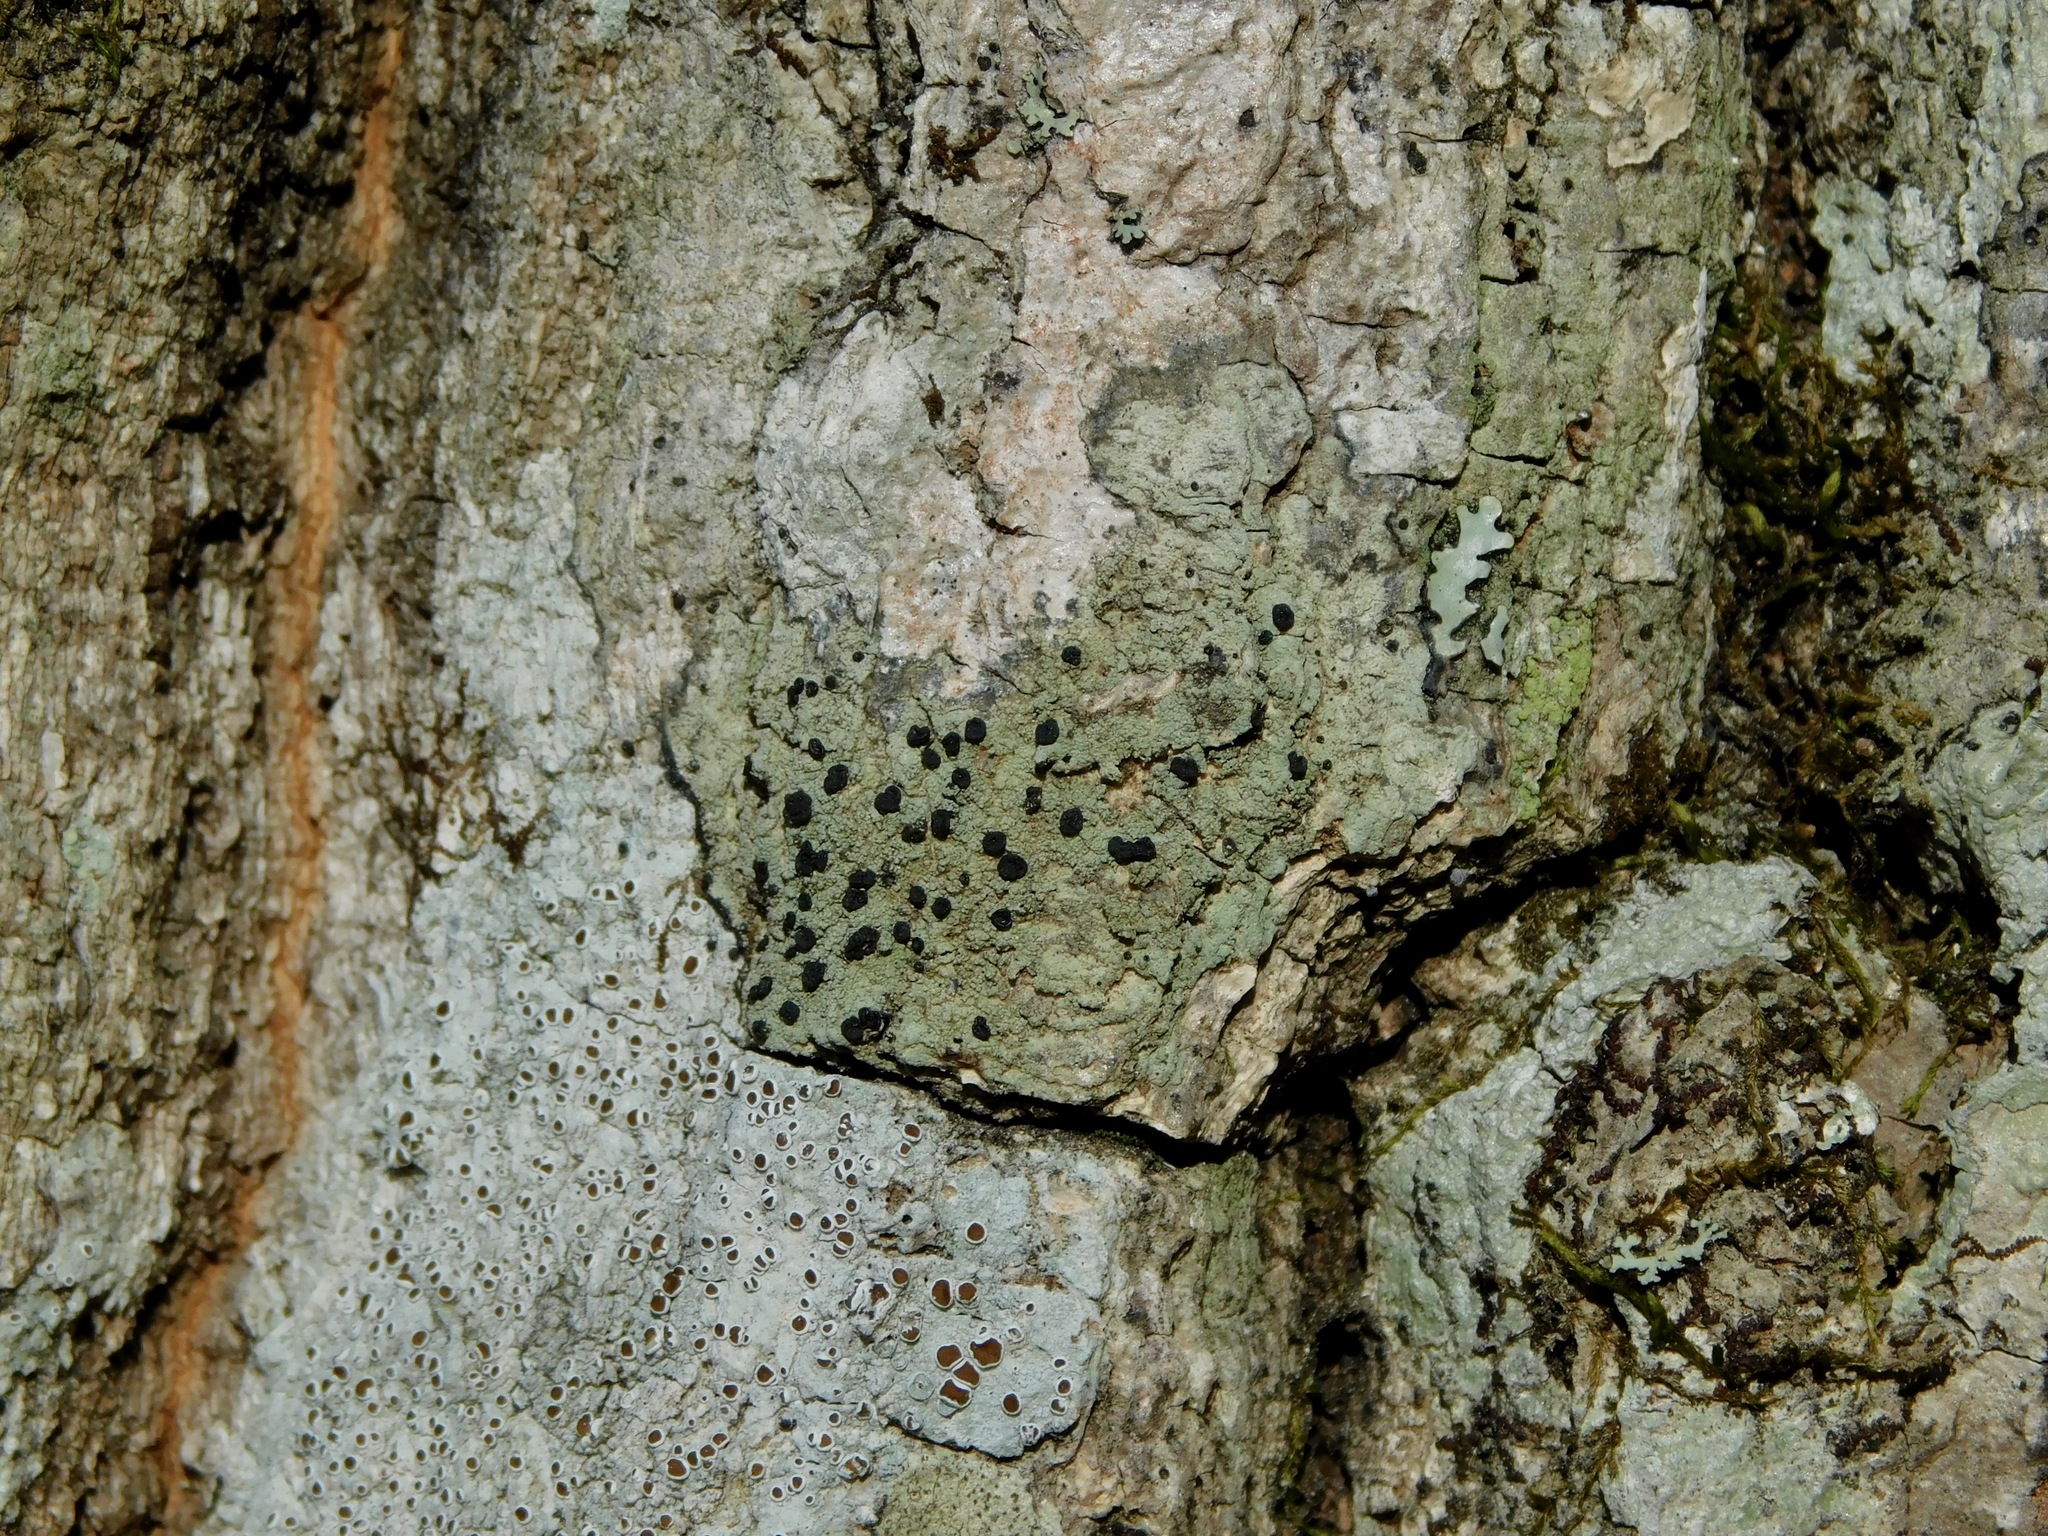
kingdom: Fungi
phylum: Ascomycota
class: Lecanoromycetes
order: Lecanorales
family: Ramalinaceae
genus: Bacidia
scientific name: Bacidia schweinitzii
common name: Surprise lichen
